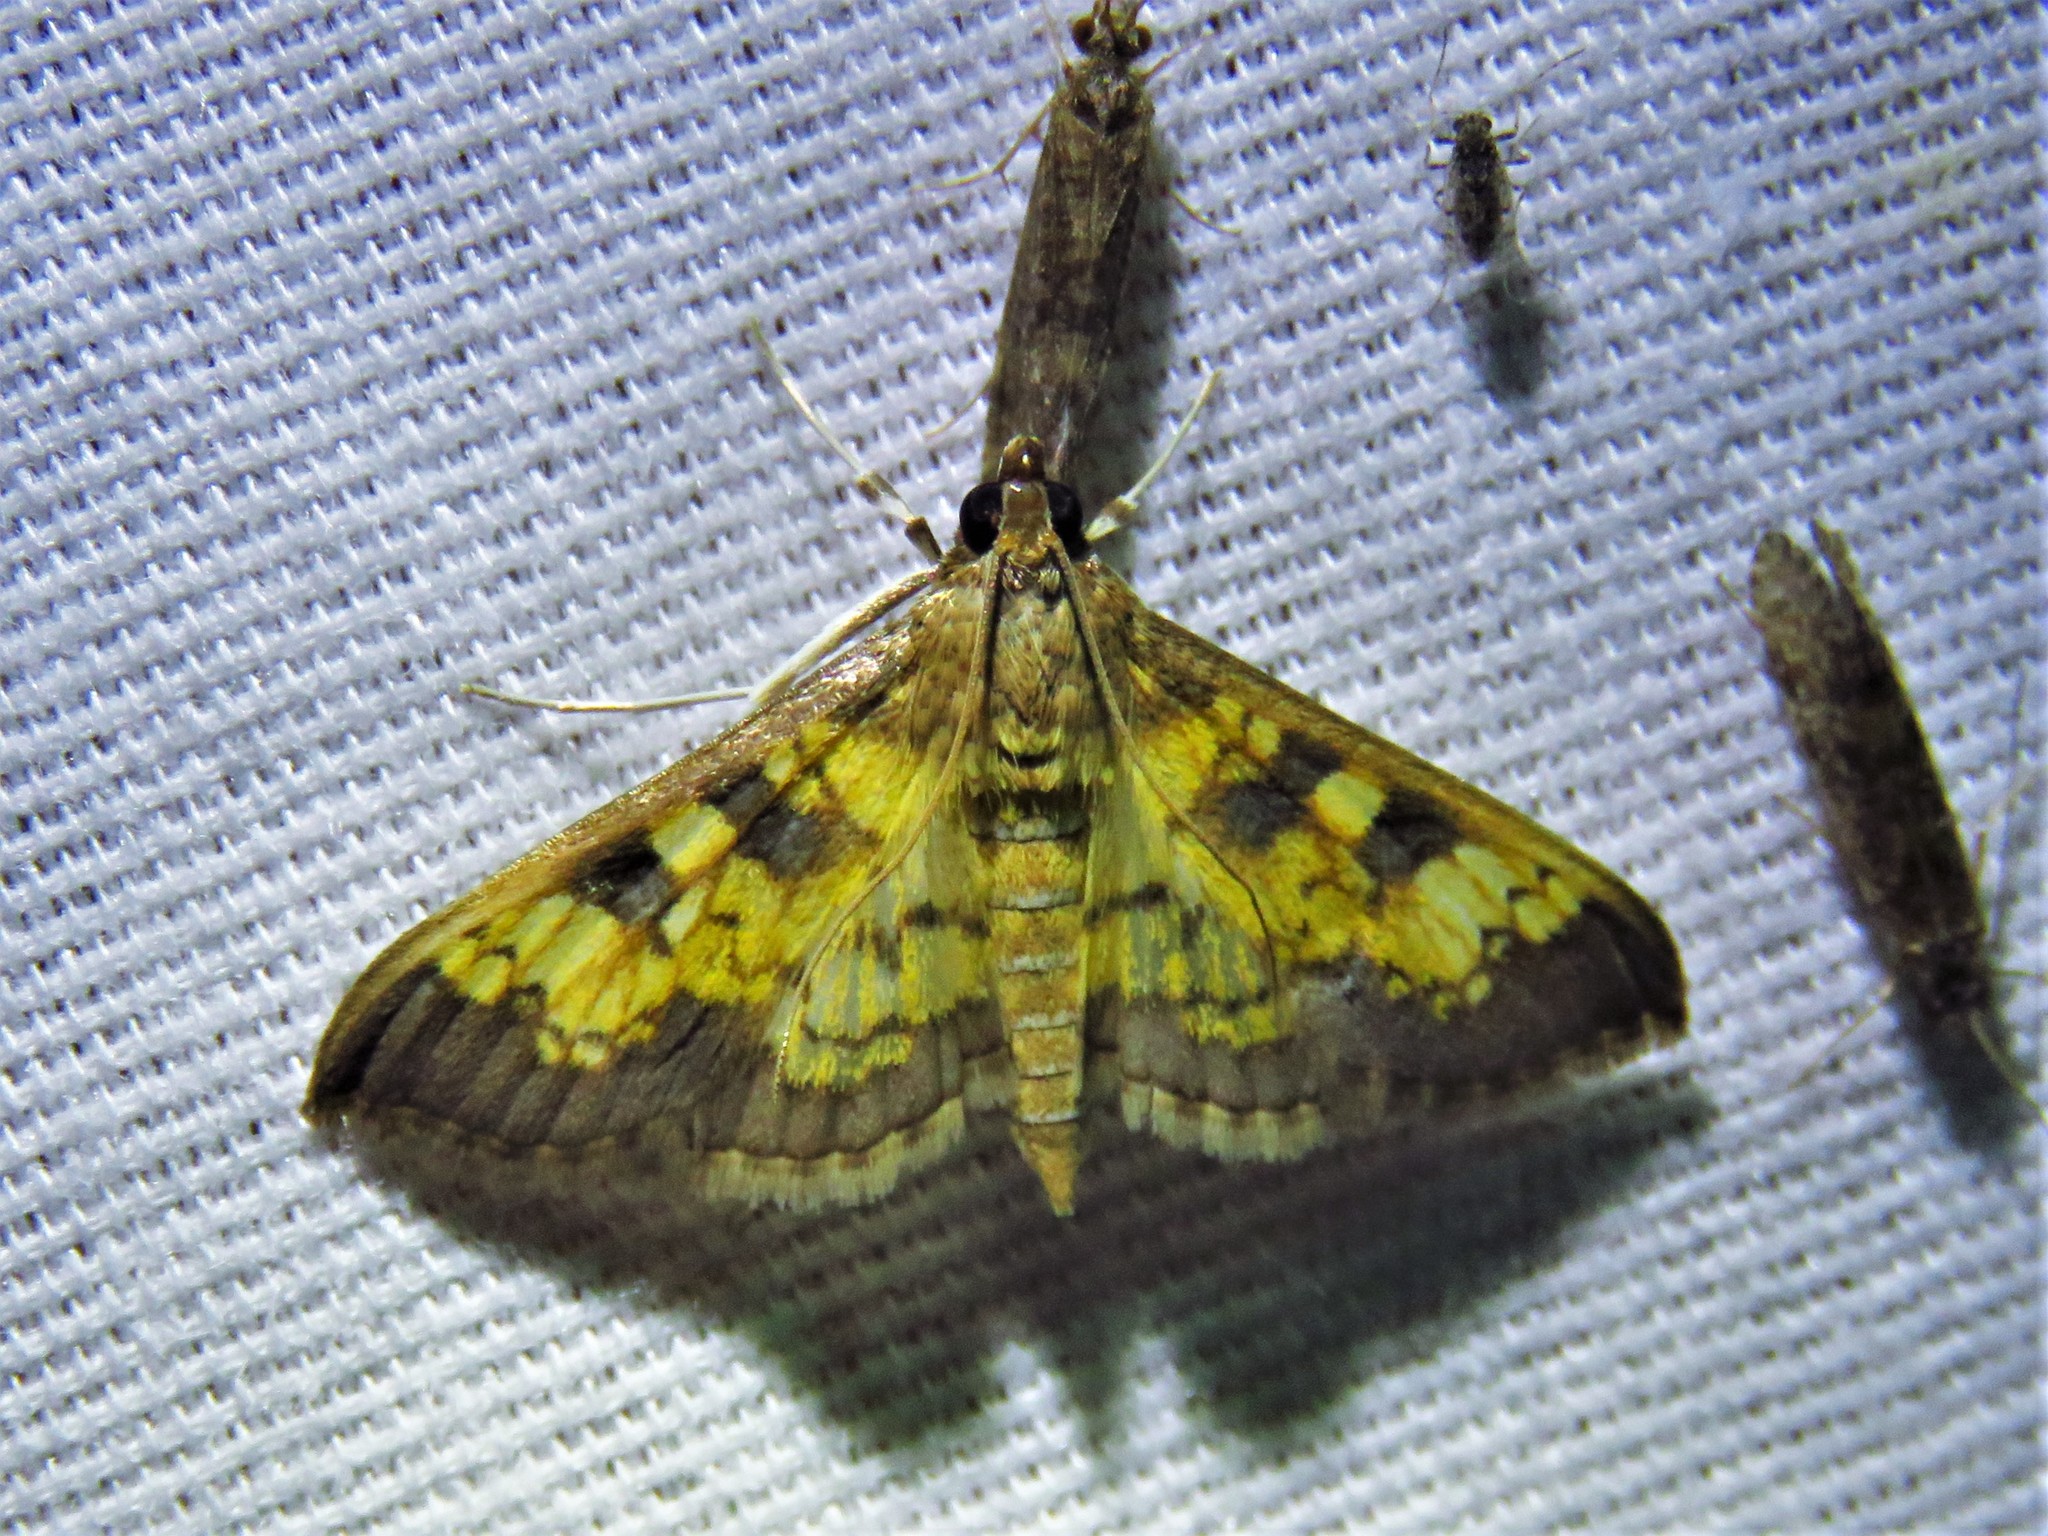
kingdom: Animalia
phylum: Arthropoda
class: Insecta
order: Lepidoptera
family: Crambidae
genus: Cryptographis
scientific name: Cryptographis elealis
